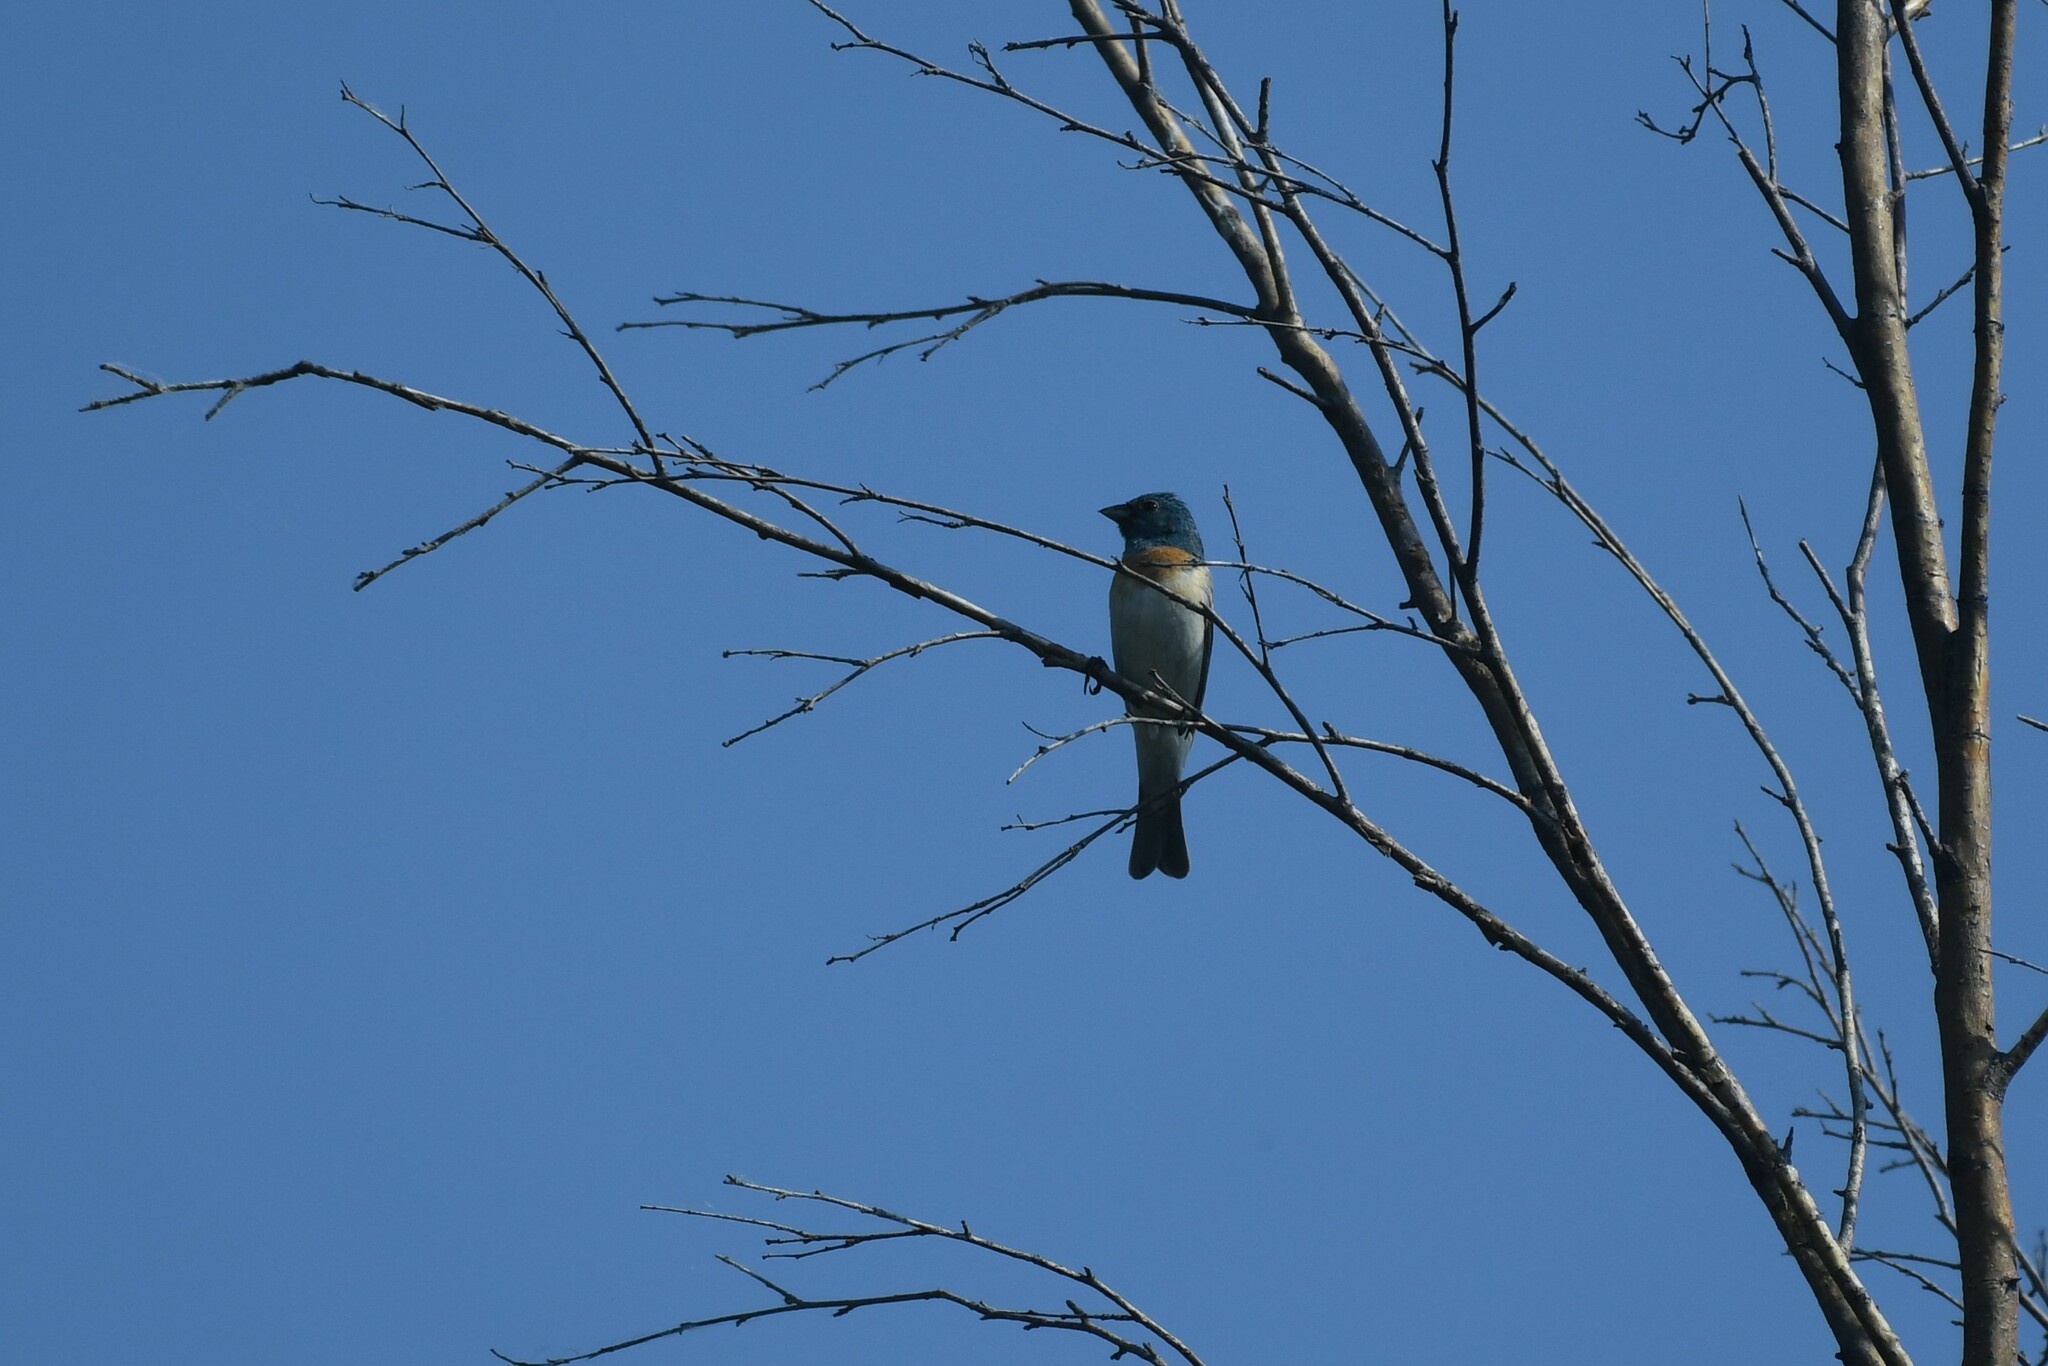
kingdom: Animalia
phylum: Chordata
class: Aves
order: Passeriformes
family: Cardinalidae
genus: Passerina
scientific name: Passerina amoena
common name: Lazuli bunting
